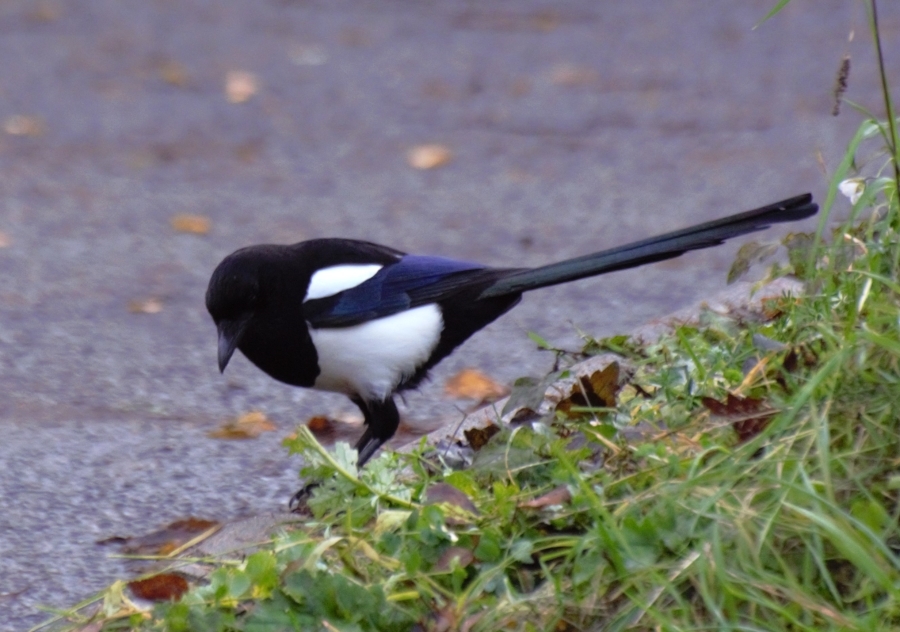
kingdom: Animalia
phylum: Chordata
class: Aves
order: Passeriformes
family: Corvidae
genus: Pica
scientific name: Pica pica
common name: Eurasian magpie
